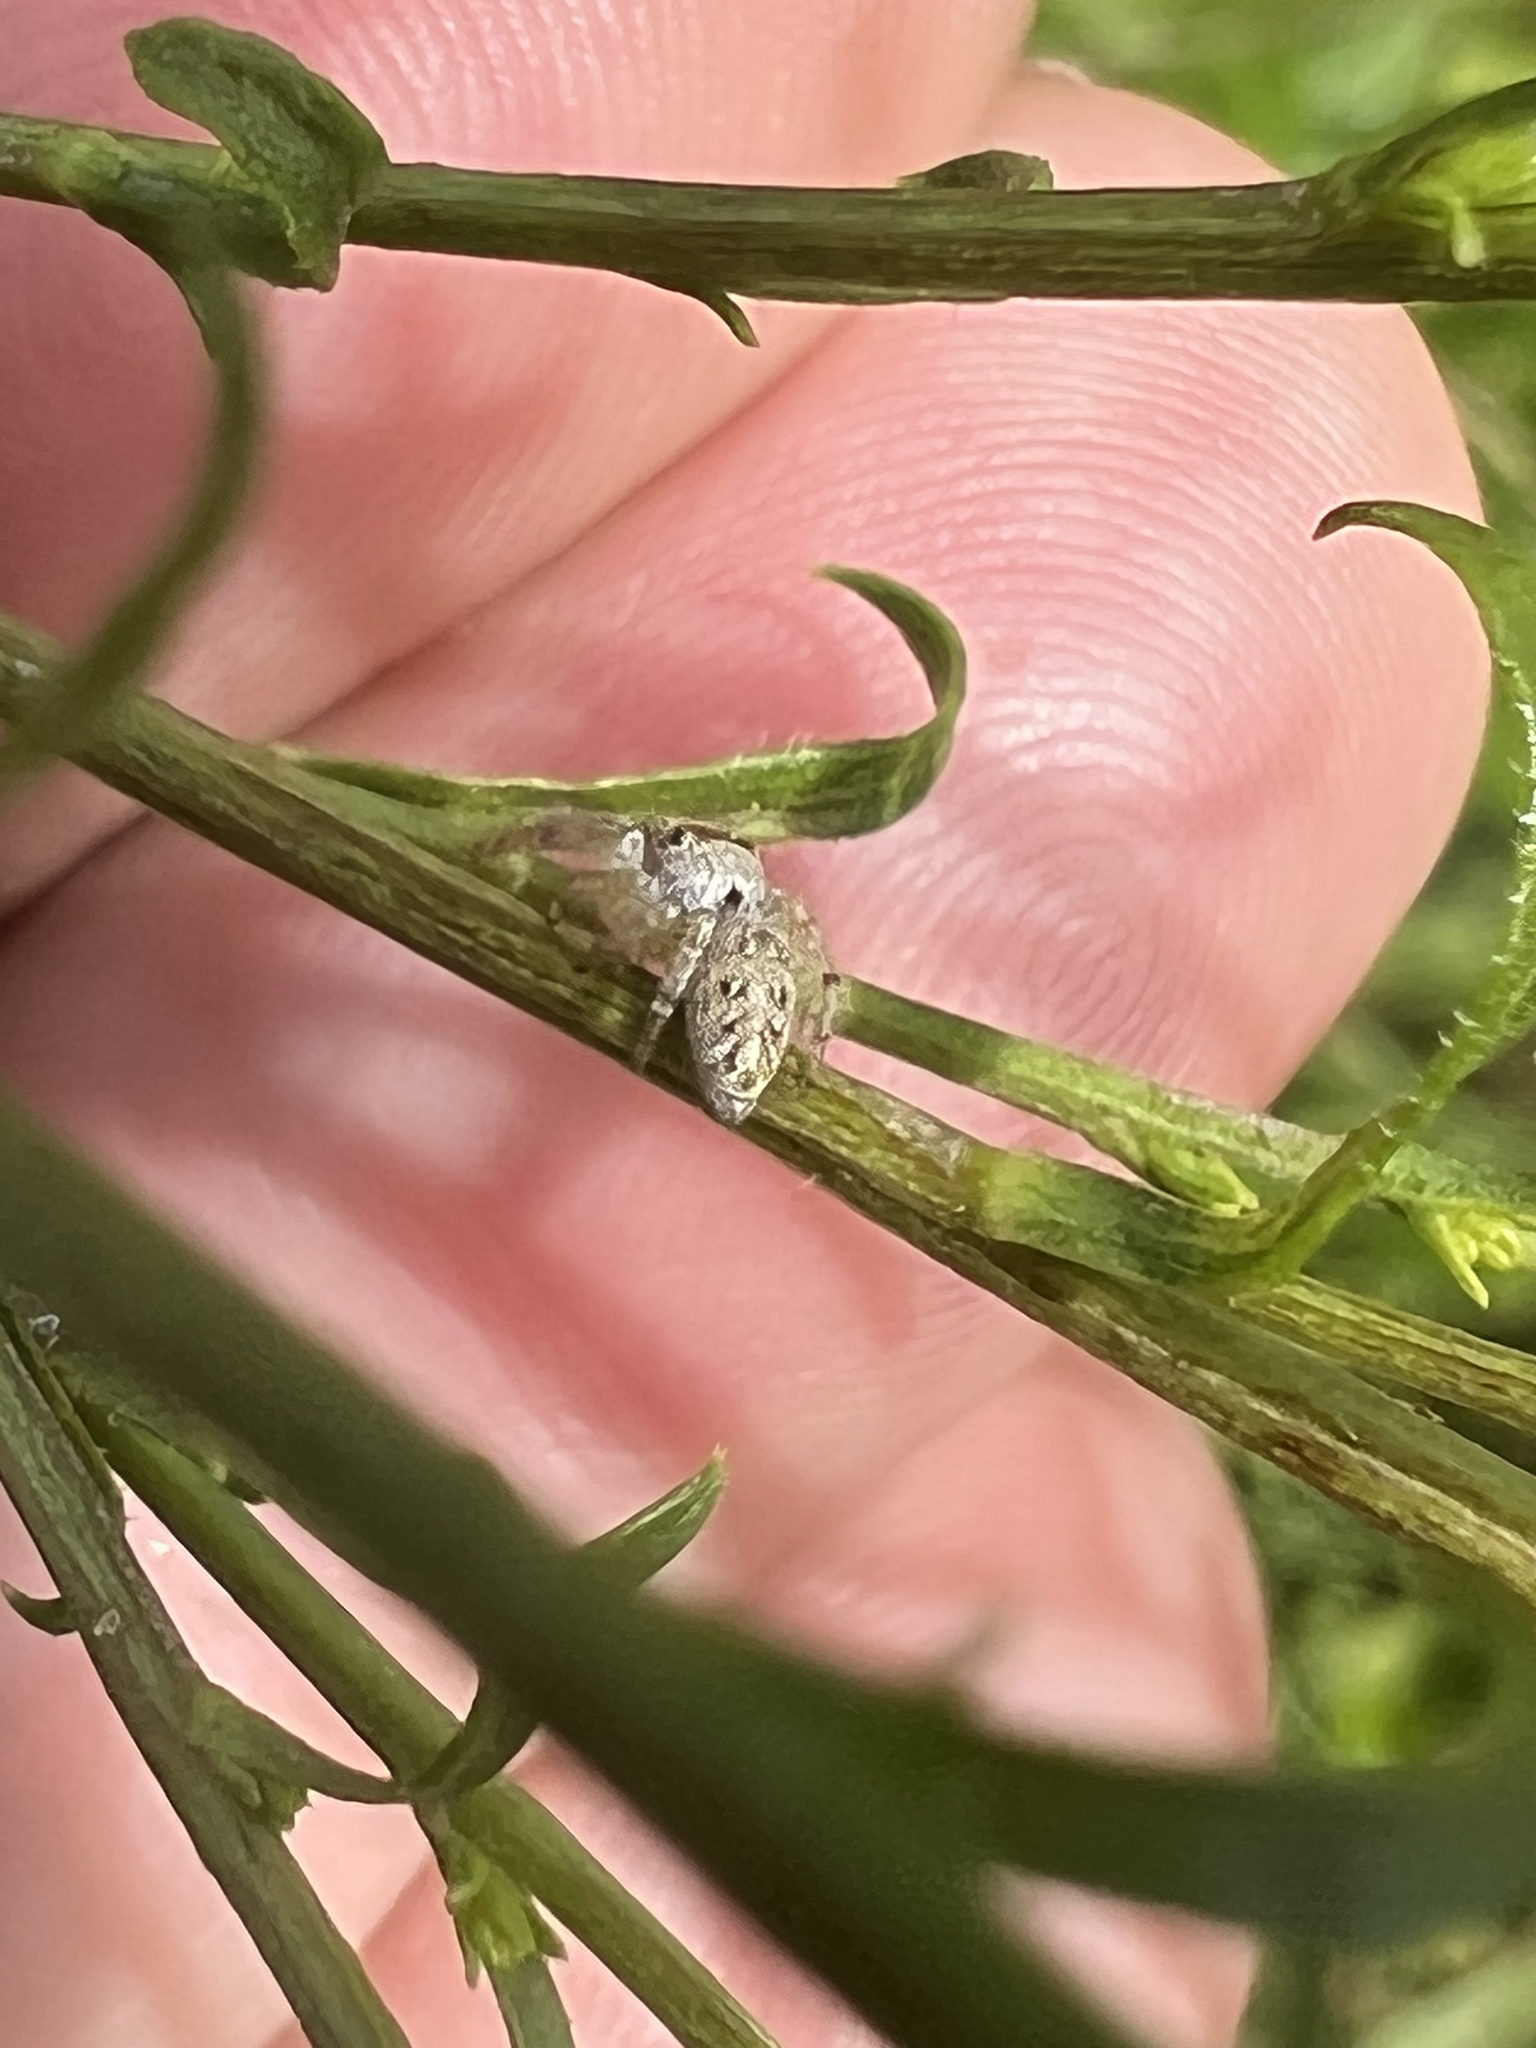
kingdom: Animalia
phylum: Arthropoda
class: Arachnida
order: Araneae
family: Salticidae
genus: Eris
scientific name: Eris militaris
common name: Bronze jumper
